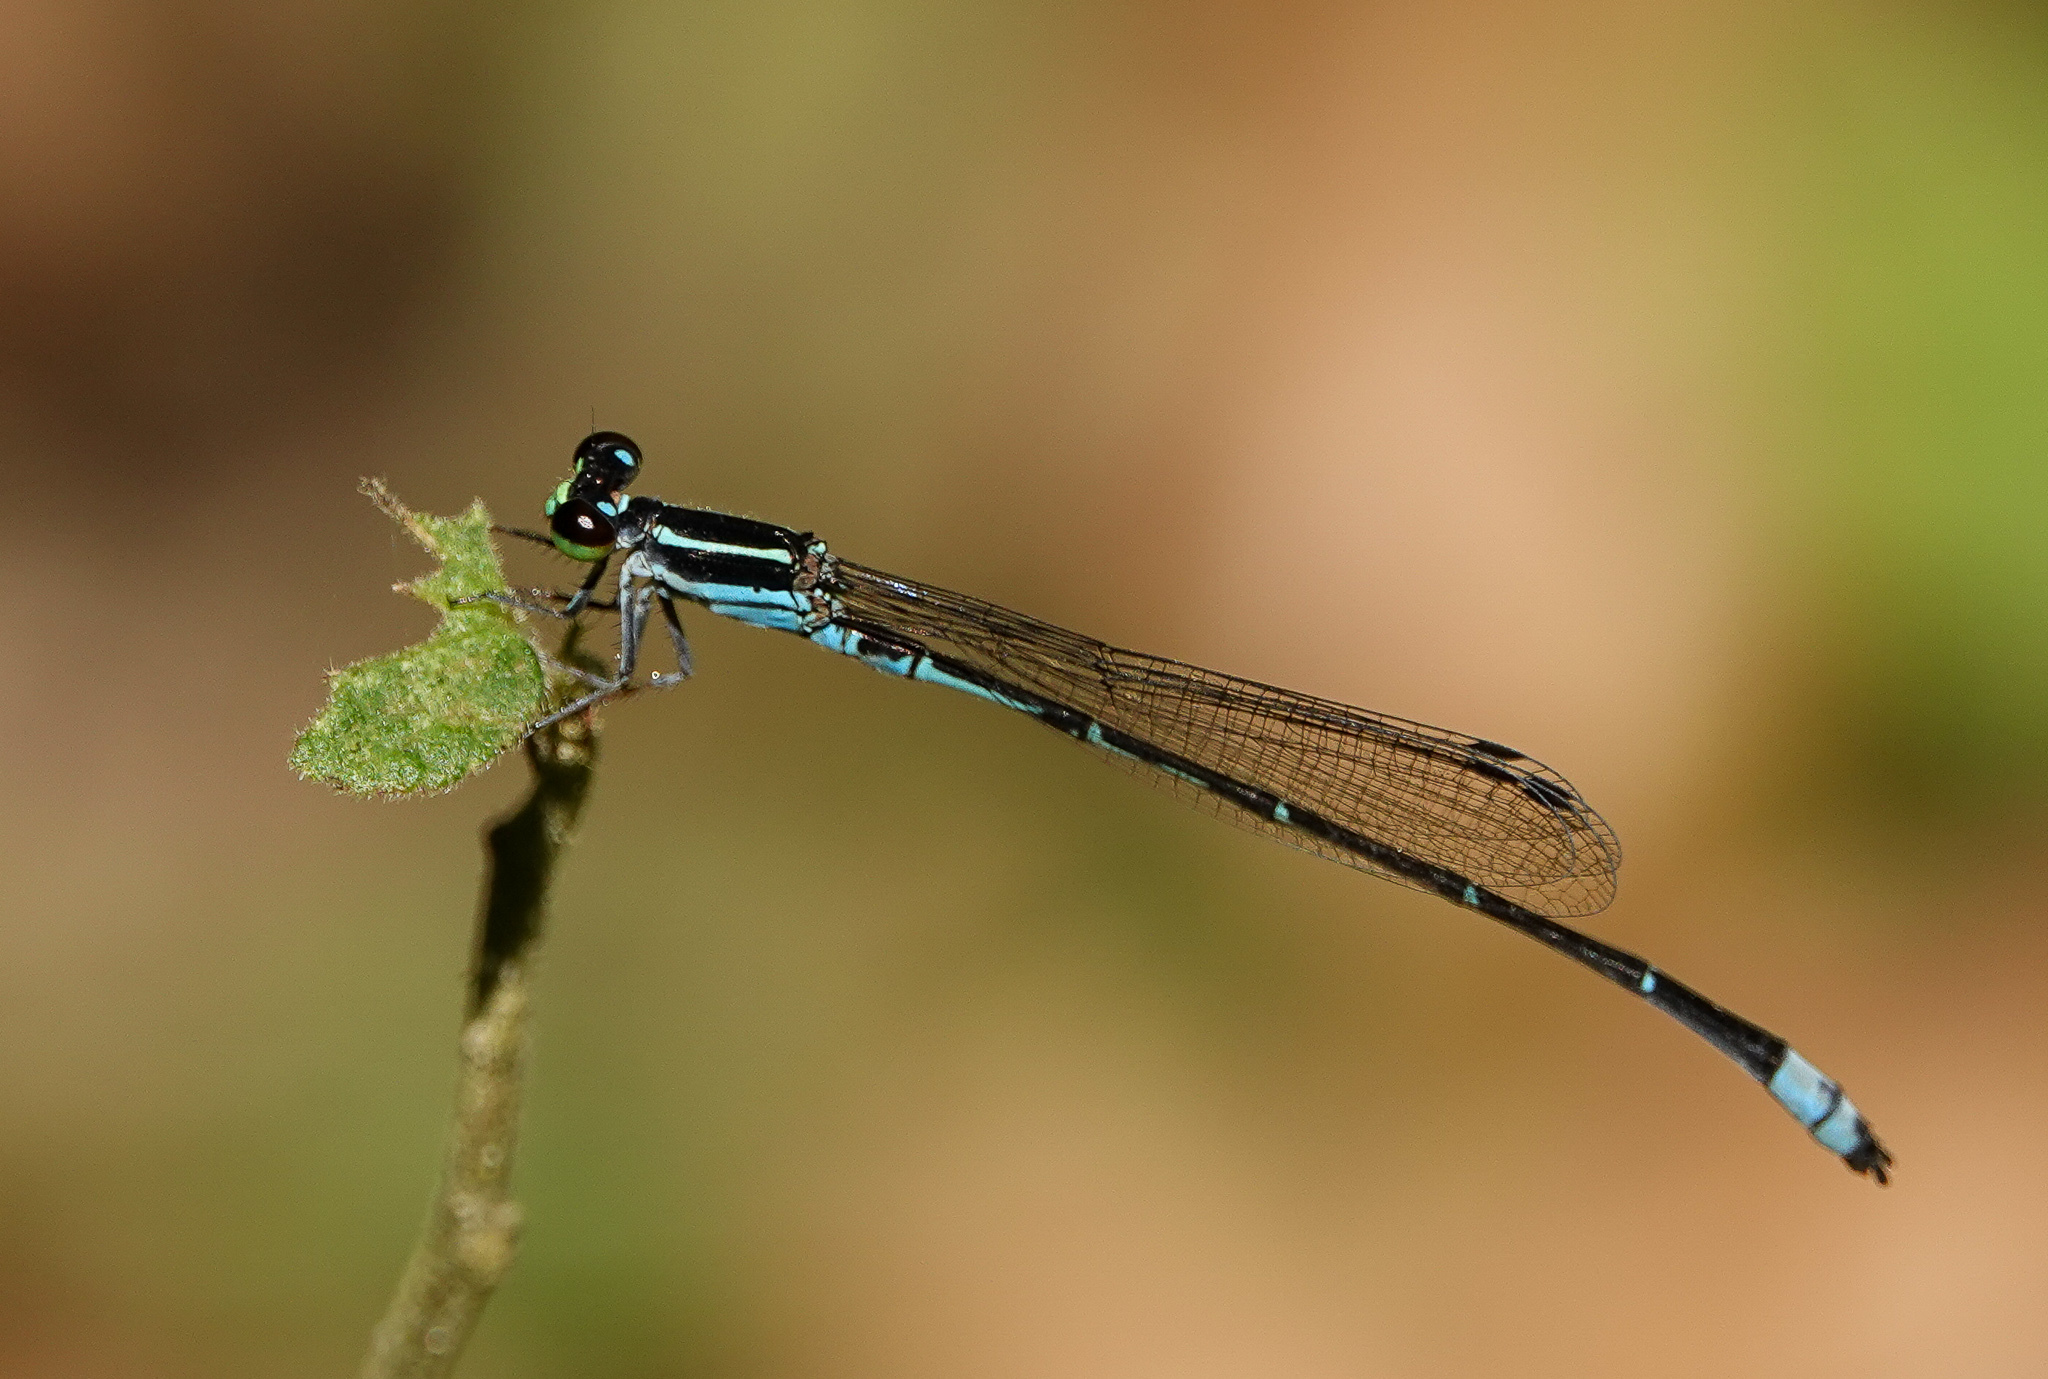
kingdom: Animalia
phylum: Arthropoda
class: Insecta
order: Odonata
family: Coenagrionidae
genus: Argiocnemis
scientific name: Argiocnemis rubescens
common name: Red-tipped shadefly
